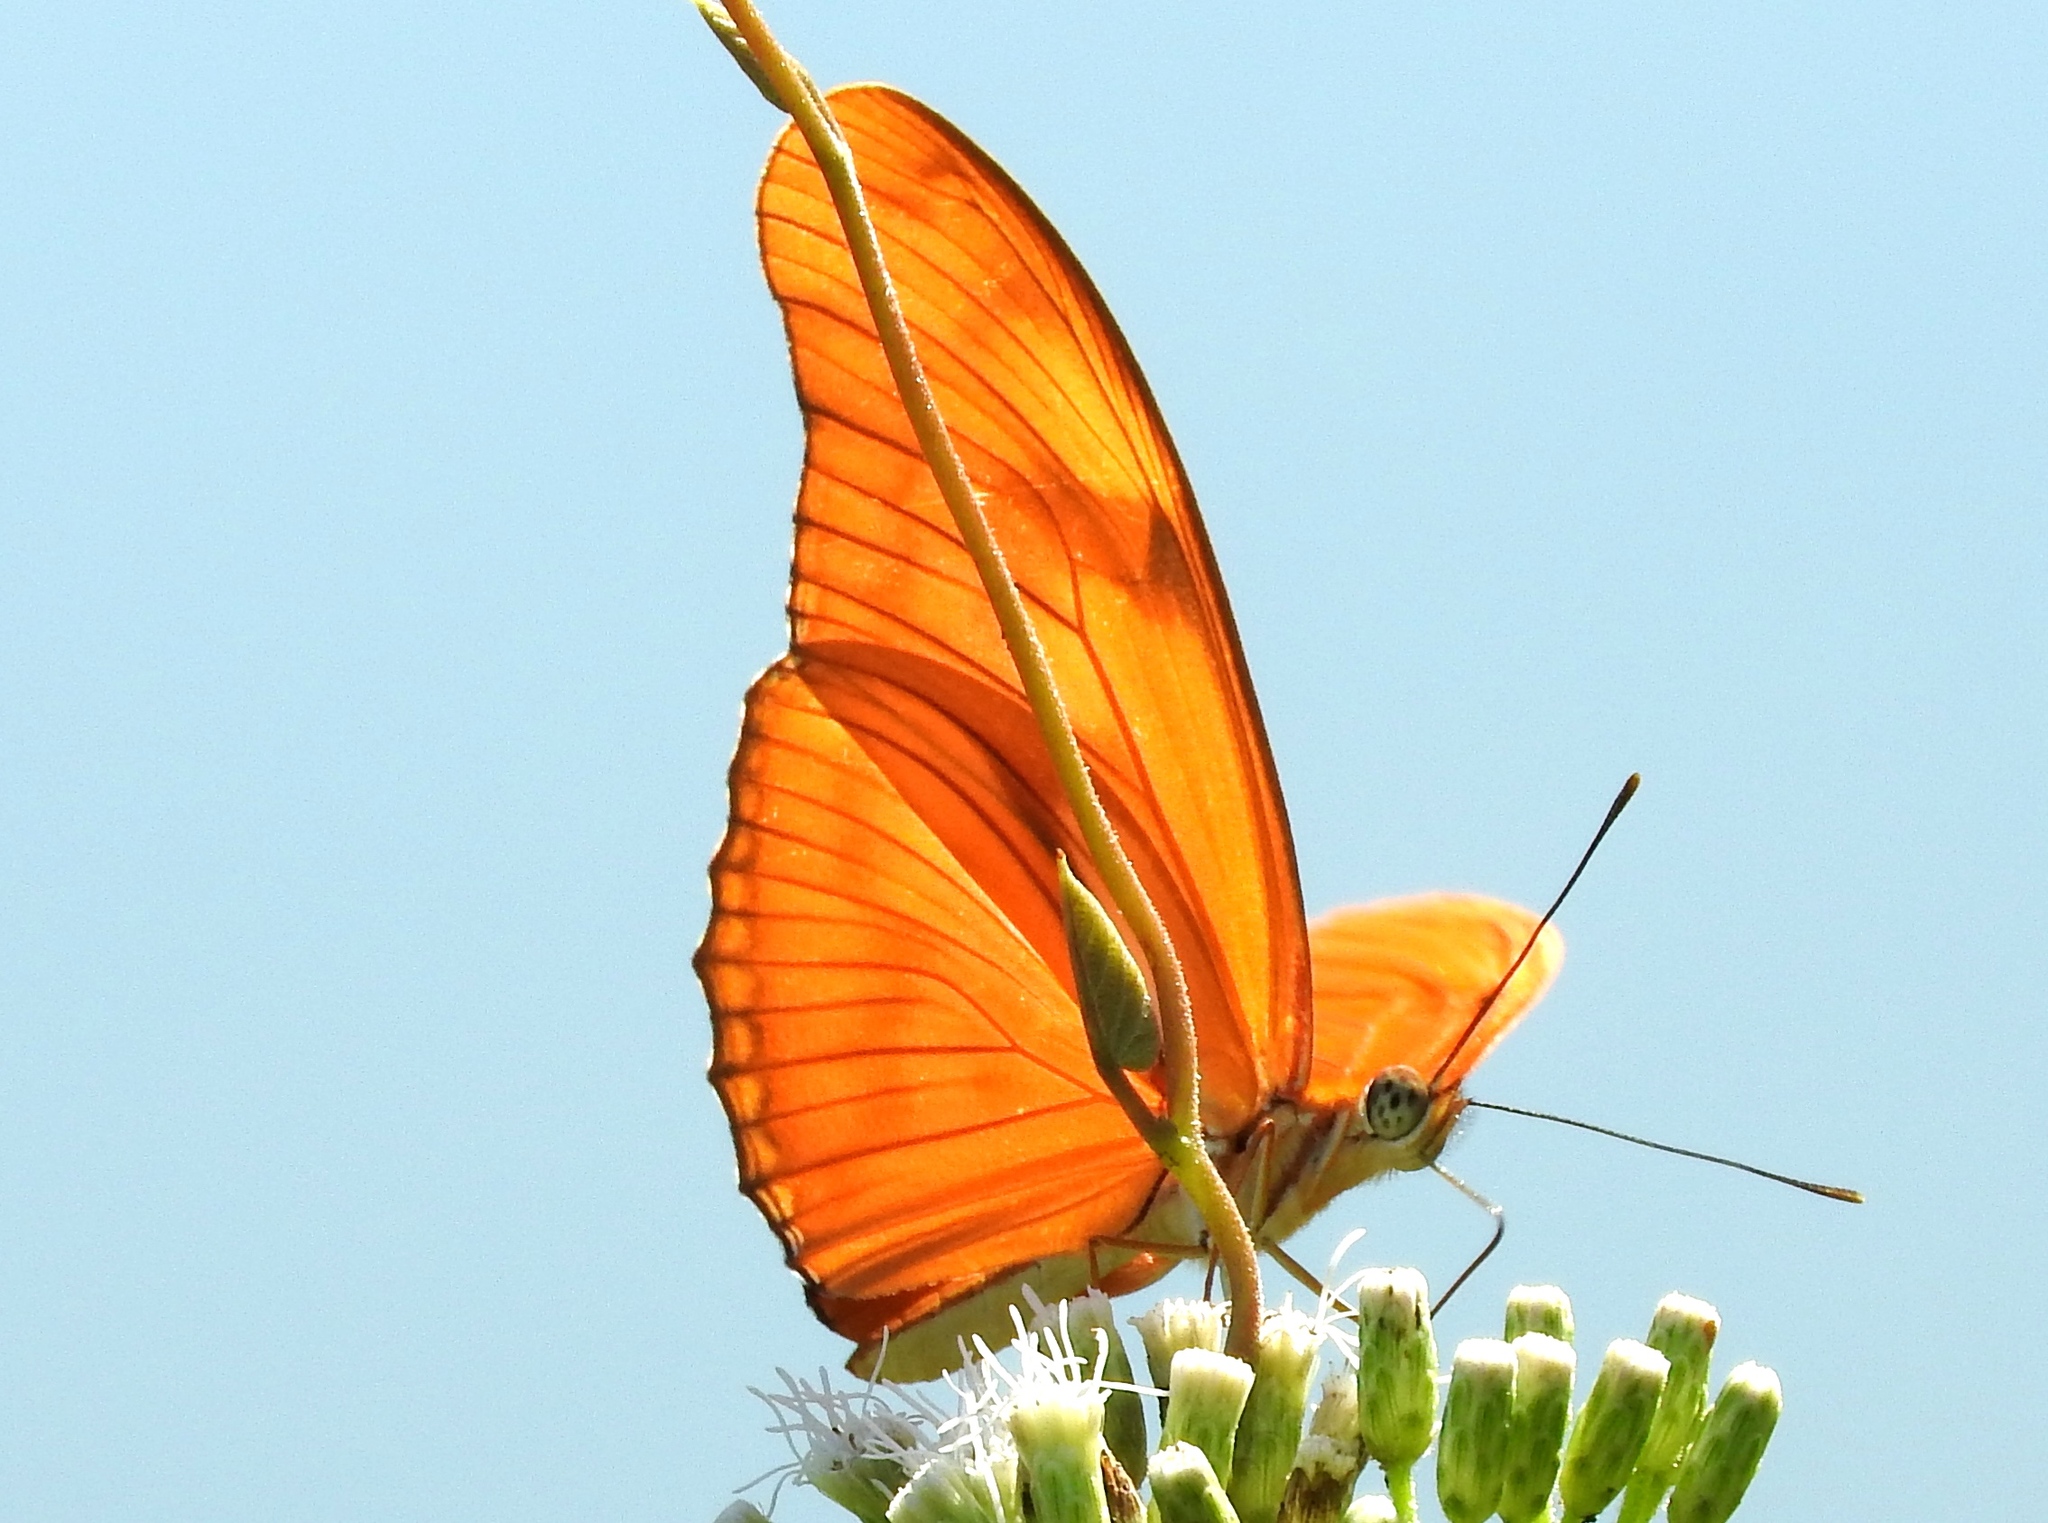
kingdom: Animalia
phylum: Arthropoda
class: Insecta
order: Lepidoptera
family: Nymphalidae
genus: Dryas
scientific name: Dryas iulia
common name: Flambeau
